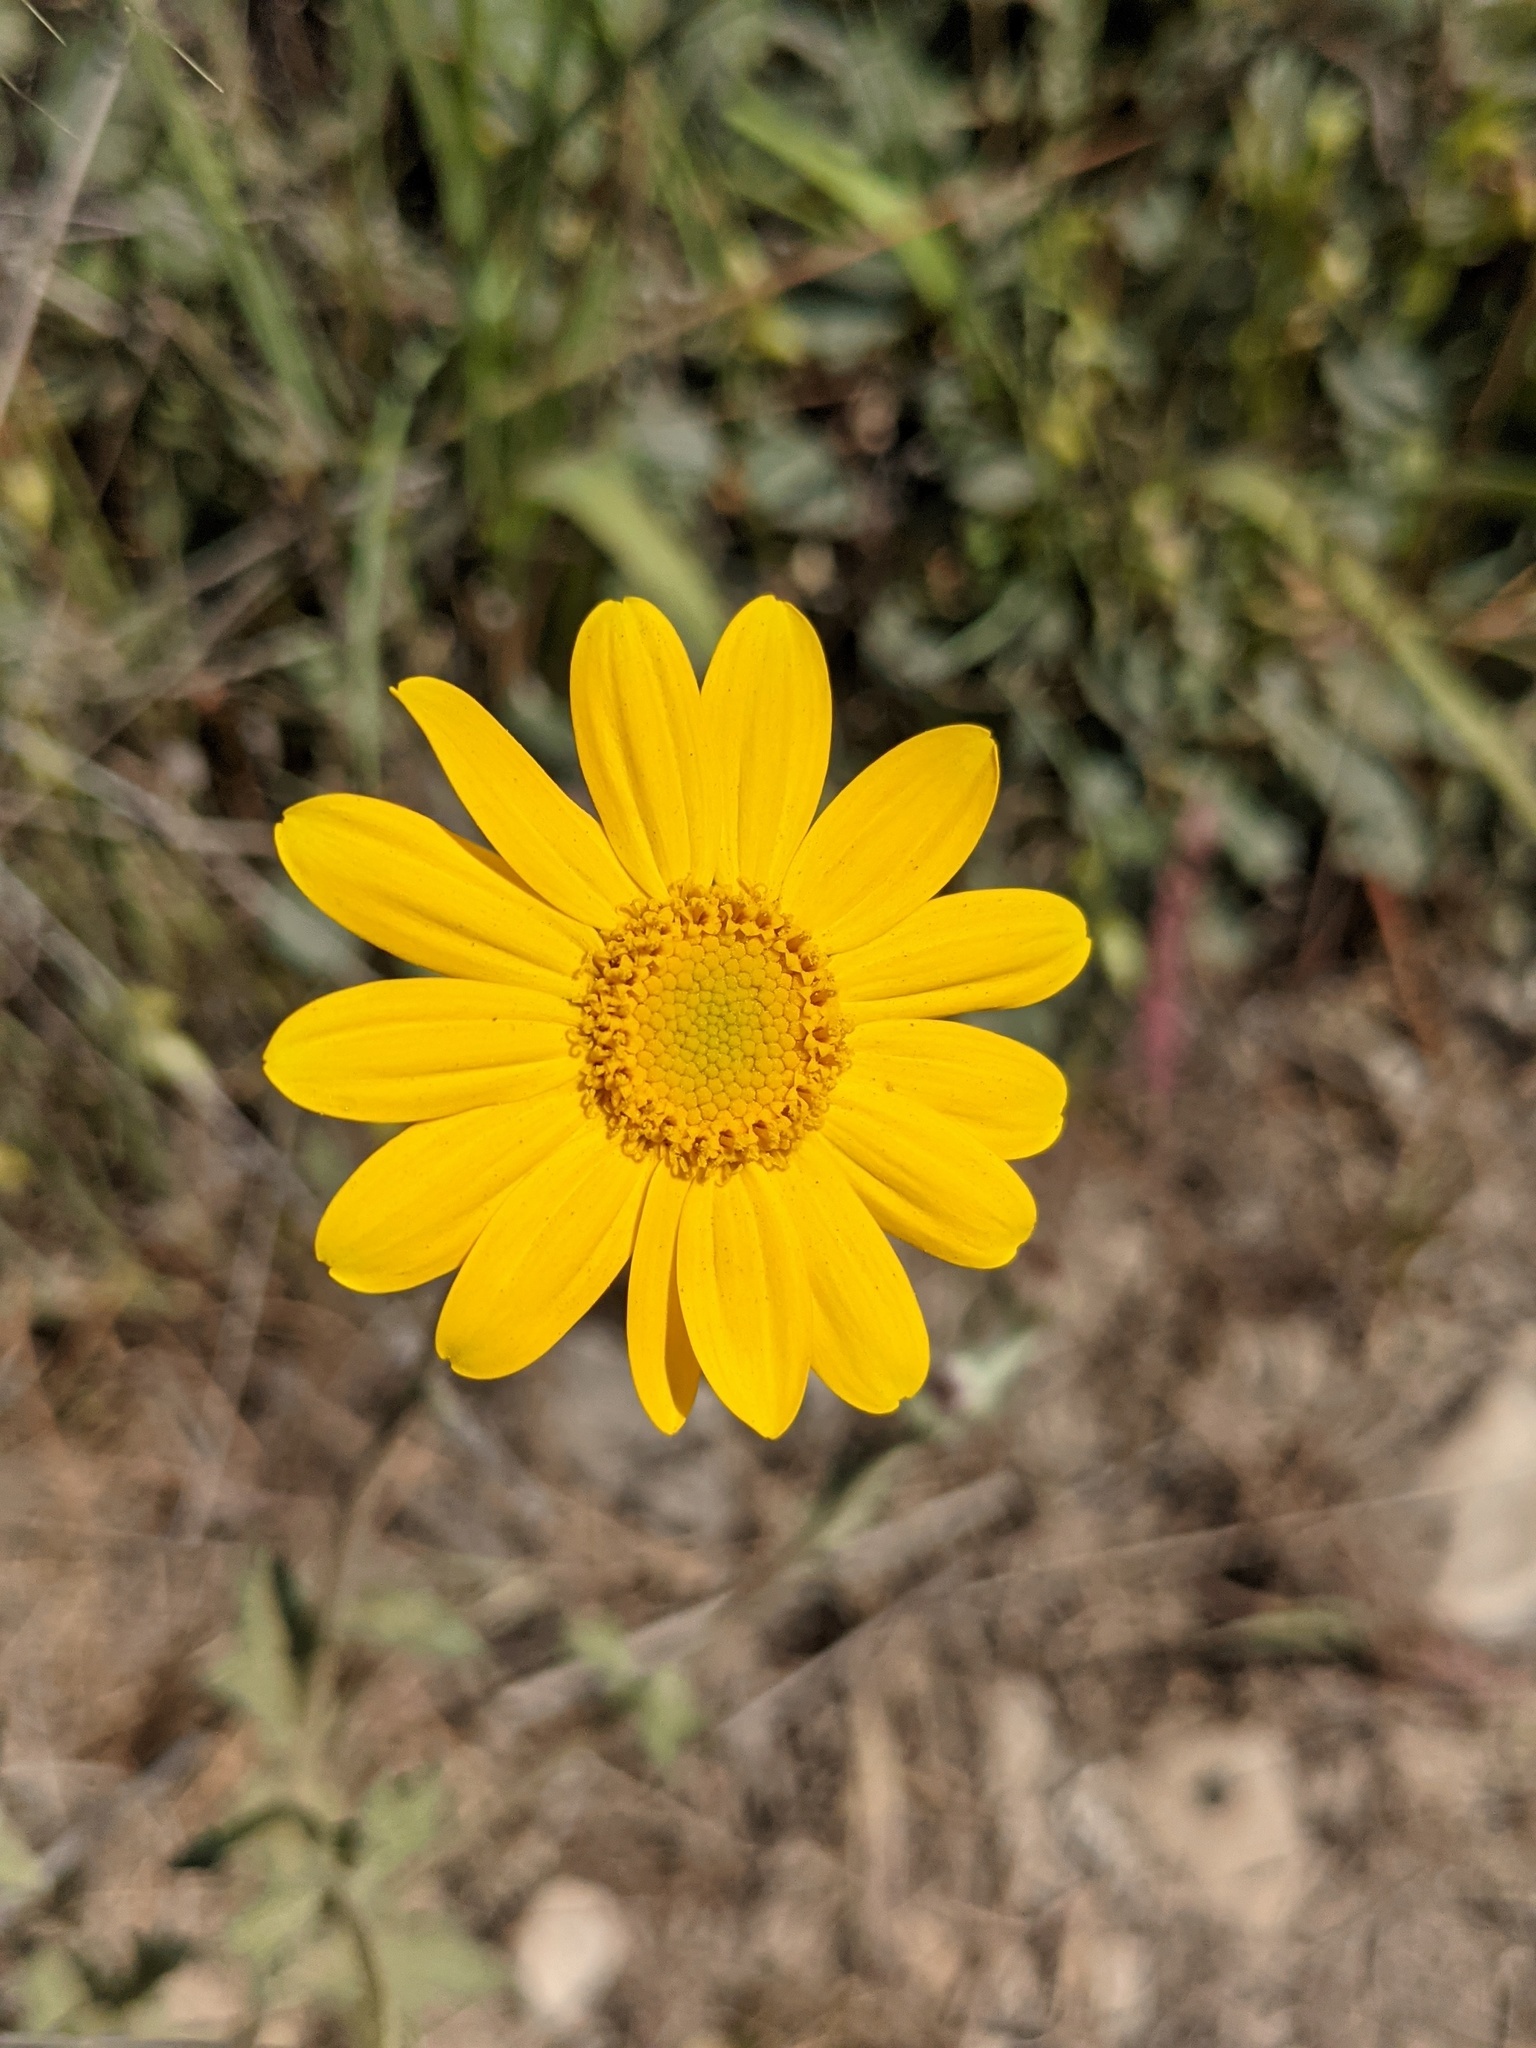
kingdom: Plantae
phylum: Tracheophyta
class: Magnoliopsida
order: Asterales
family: Asteraceae
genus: Eriophyllum
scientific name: Eriophyllum lanatum
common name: Common woolly-sunflower
